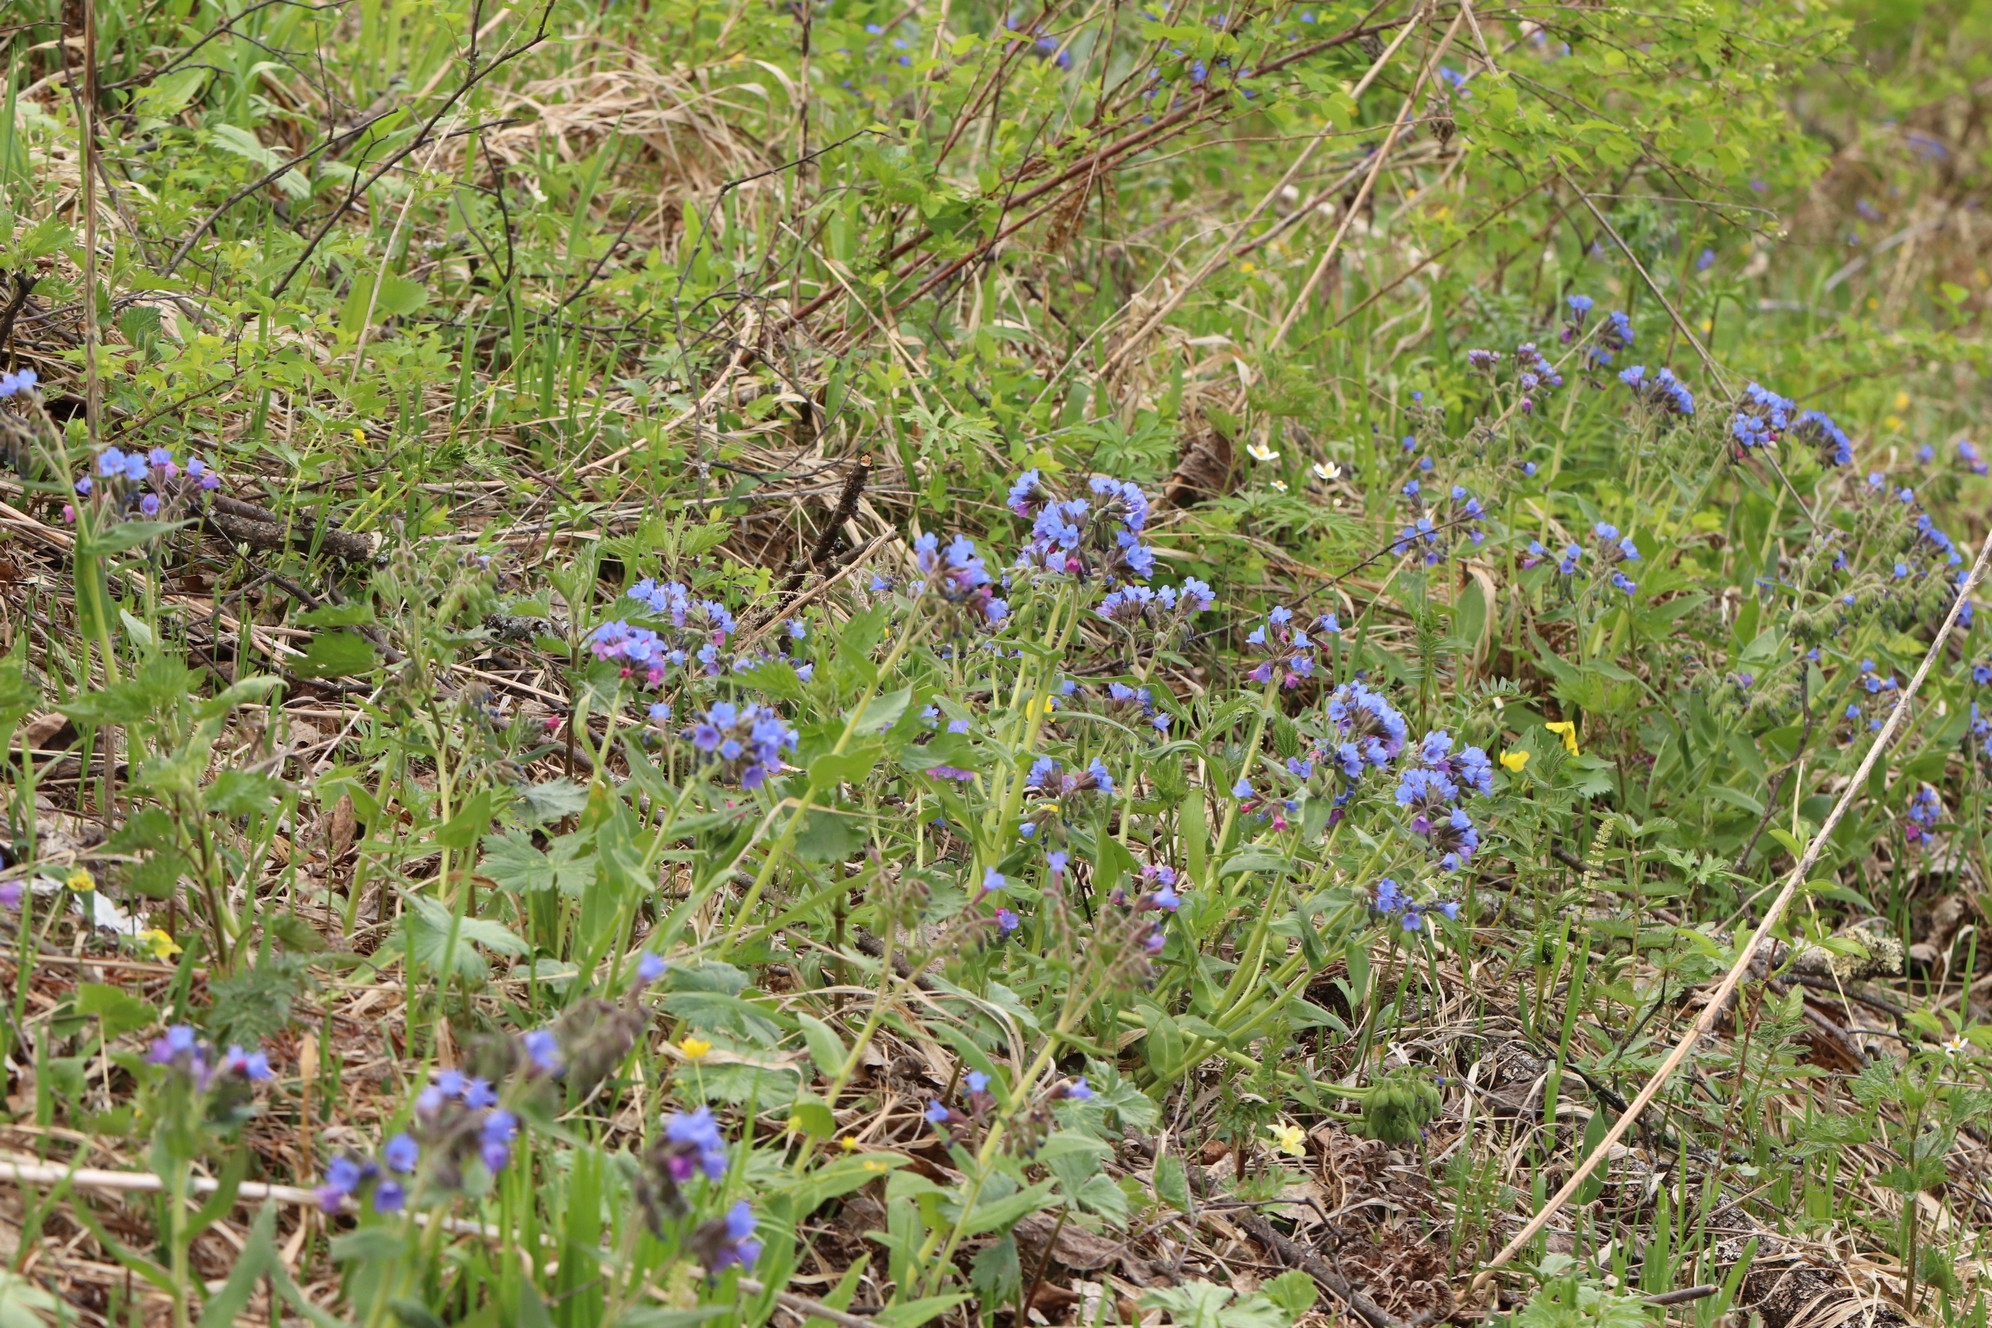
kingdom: Plantae
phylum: Tracheophyta
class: Magnoliopsida
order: Boraginales
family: Boraginaceae
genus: Pulmonaria
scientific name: Pulmonaria mollis
